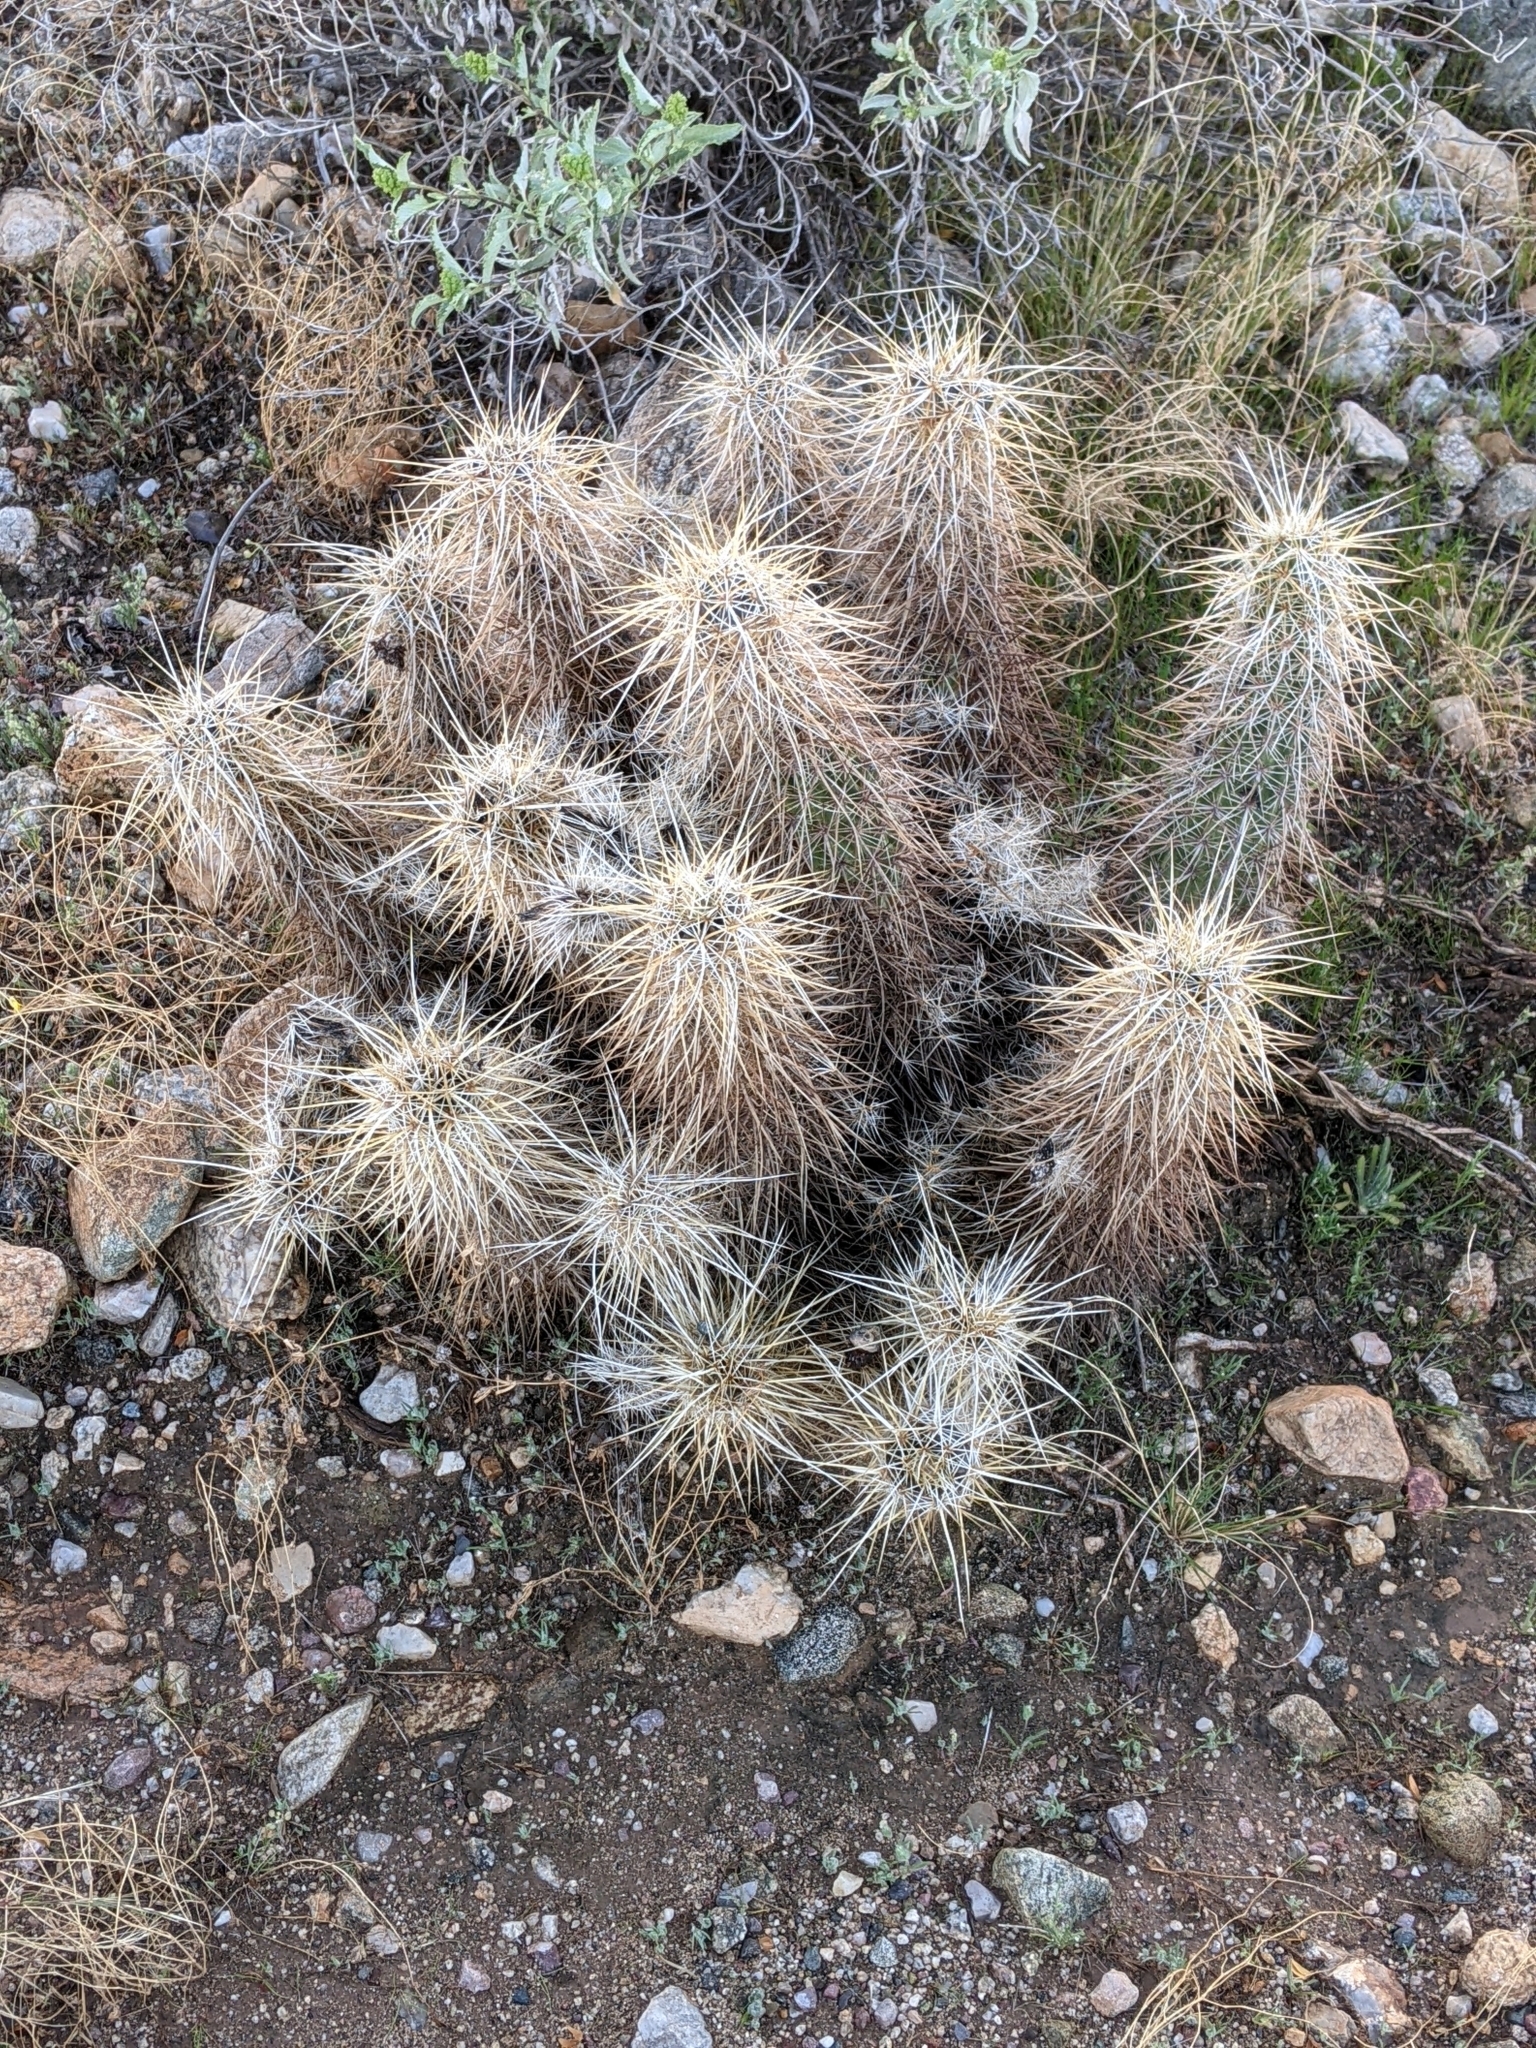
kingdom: Plantae
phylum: Tracheophyta
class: Magnoliopsida
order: Caryophyllales
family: Cactaceae
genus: Echinocereus
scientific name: Echinocereus engelmannii
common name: Engelmann's hedgehog cactus
